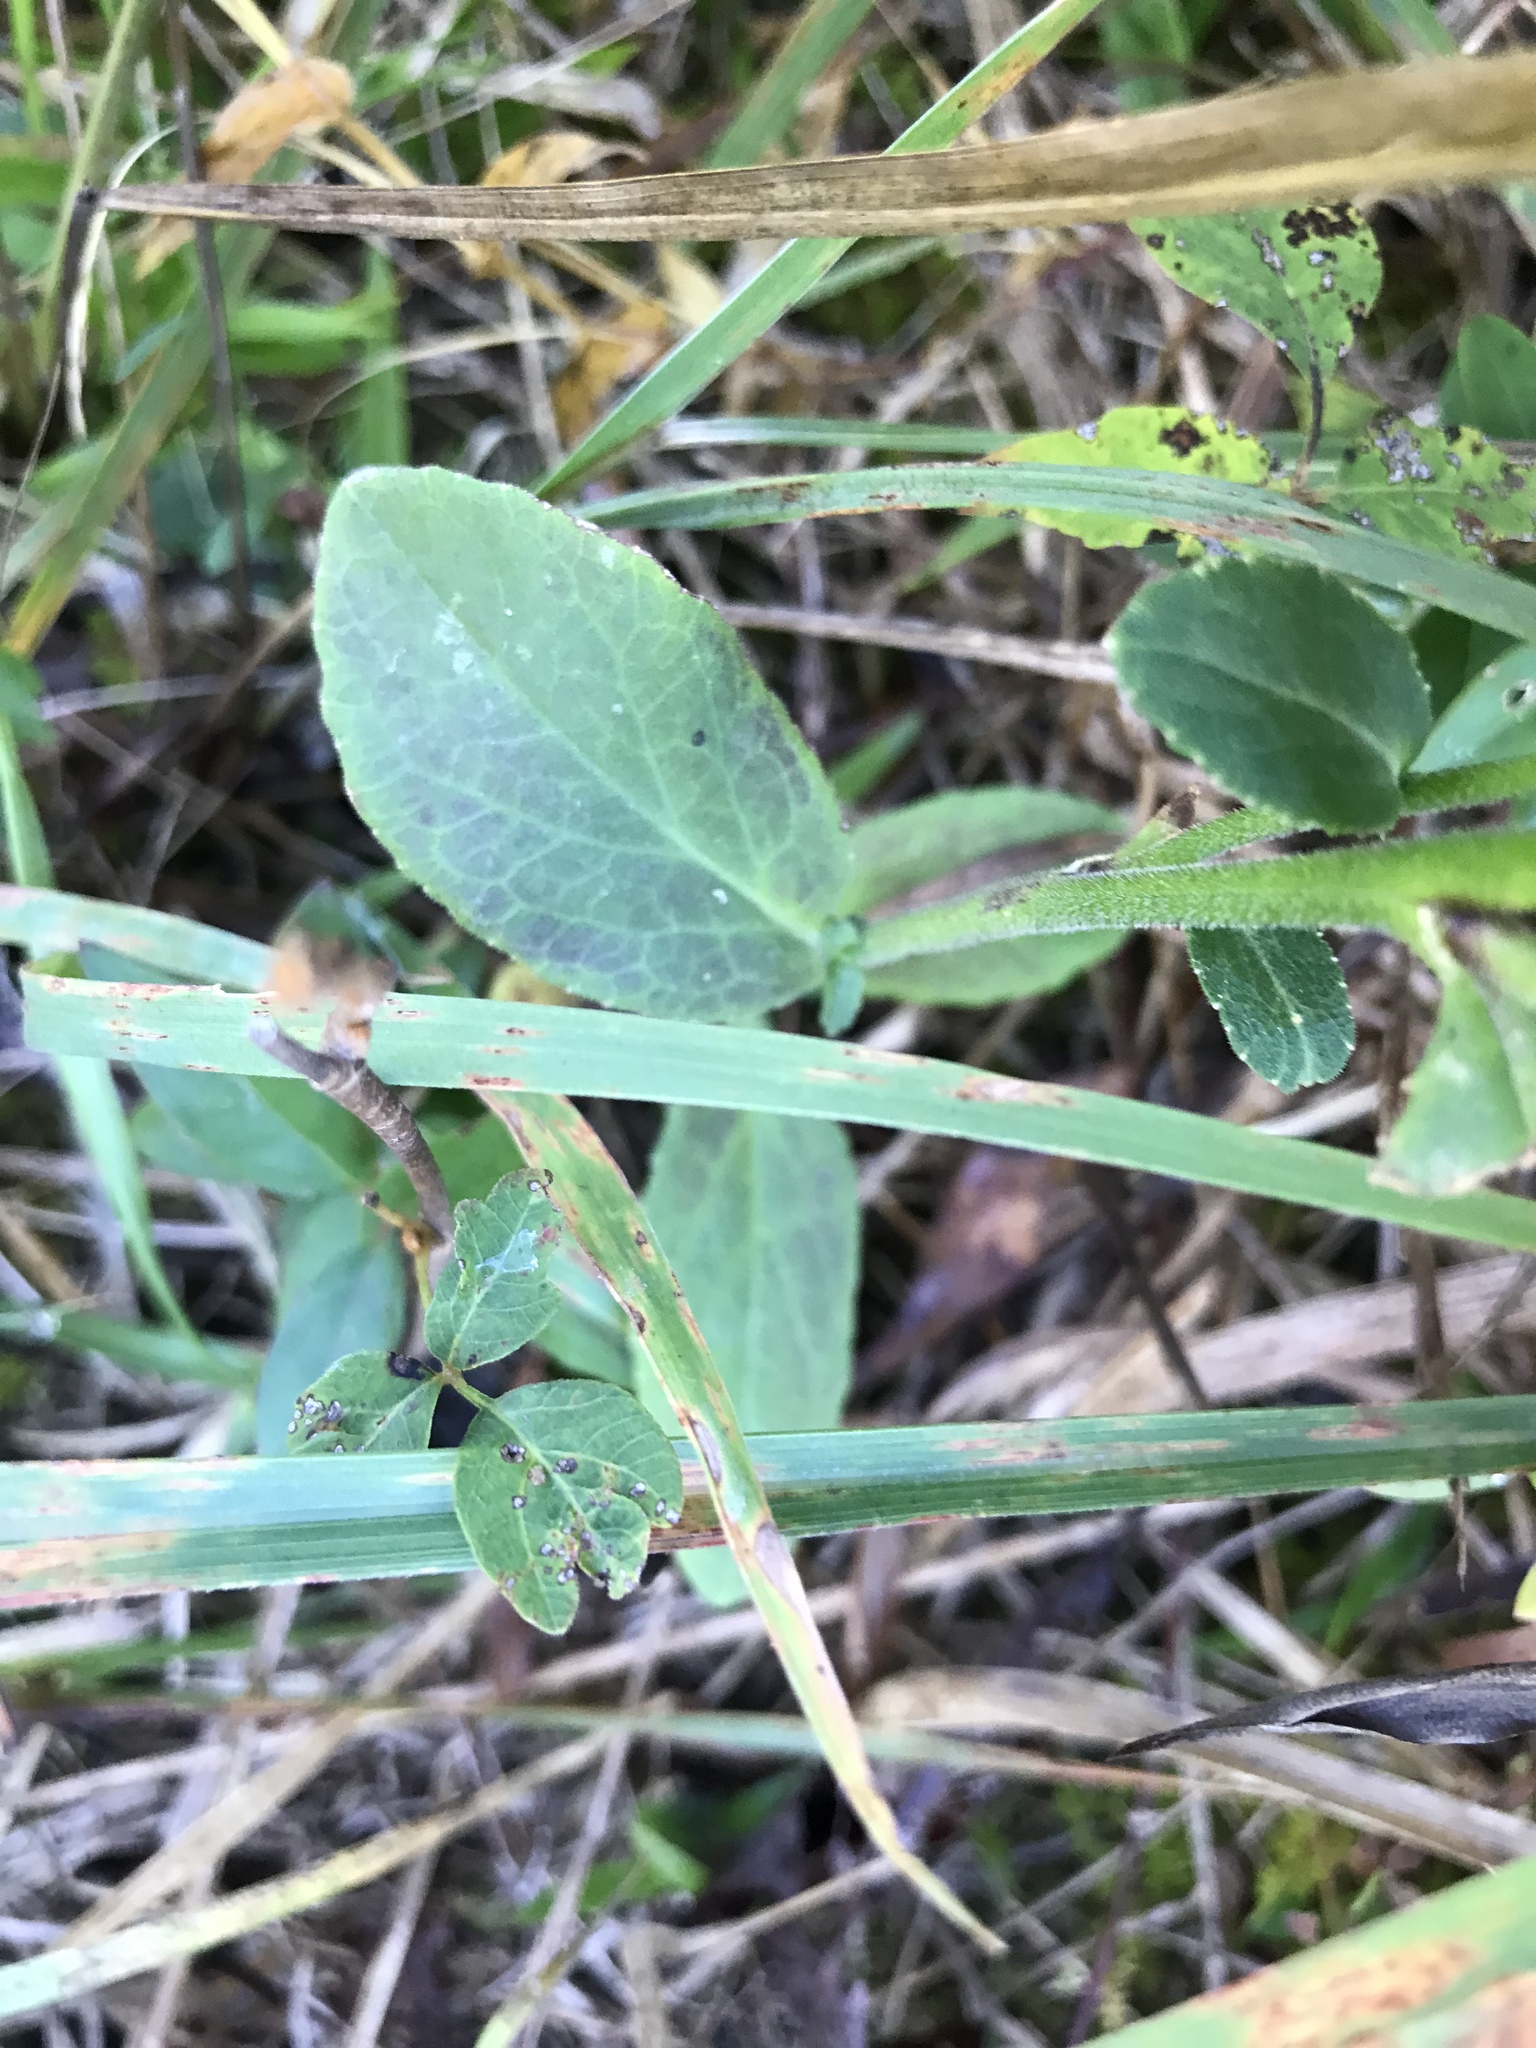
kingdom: Plantae
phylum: Tracheophyta
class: Magnoliopsida
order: Asterales
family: Campanulaceae
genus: Lobelia
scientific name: Lobelia puberula
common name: Purple dewdrop
